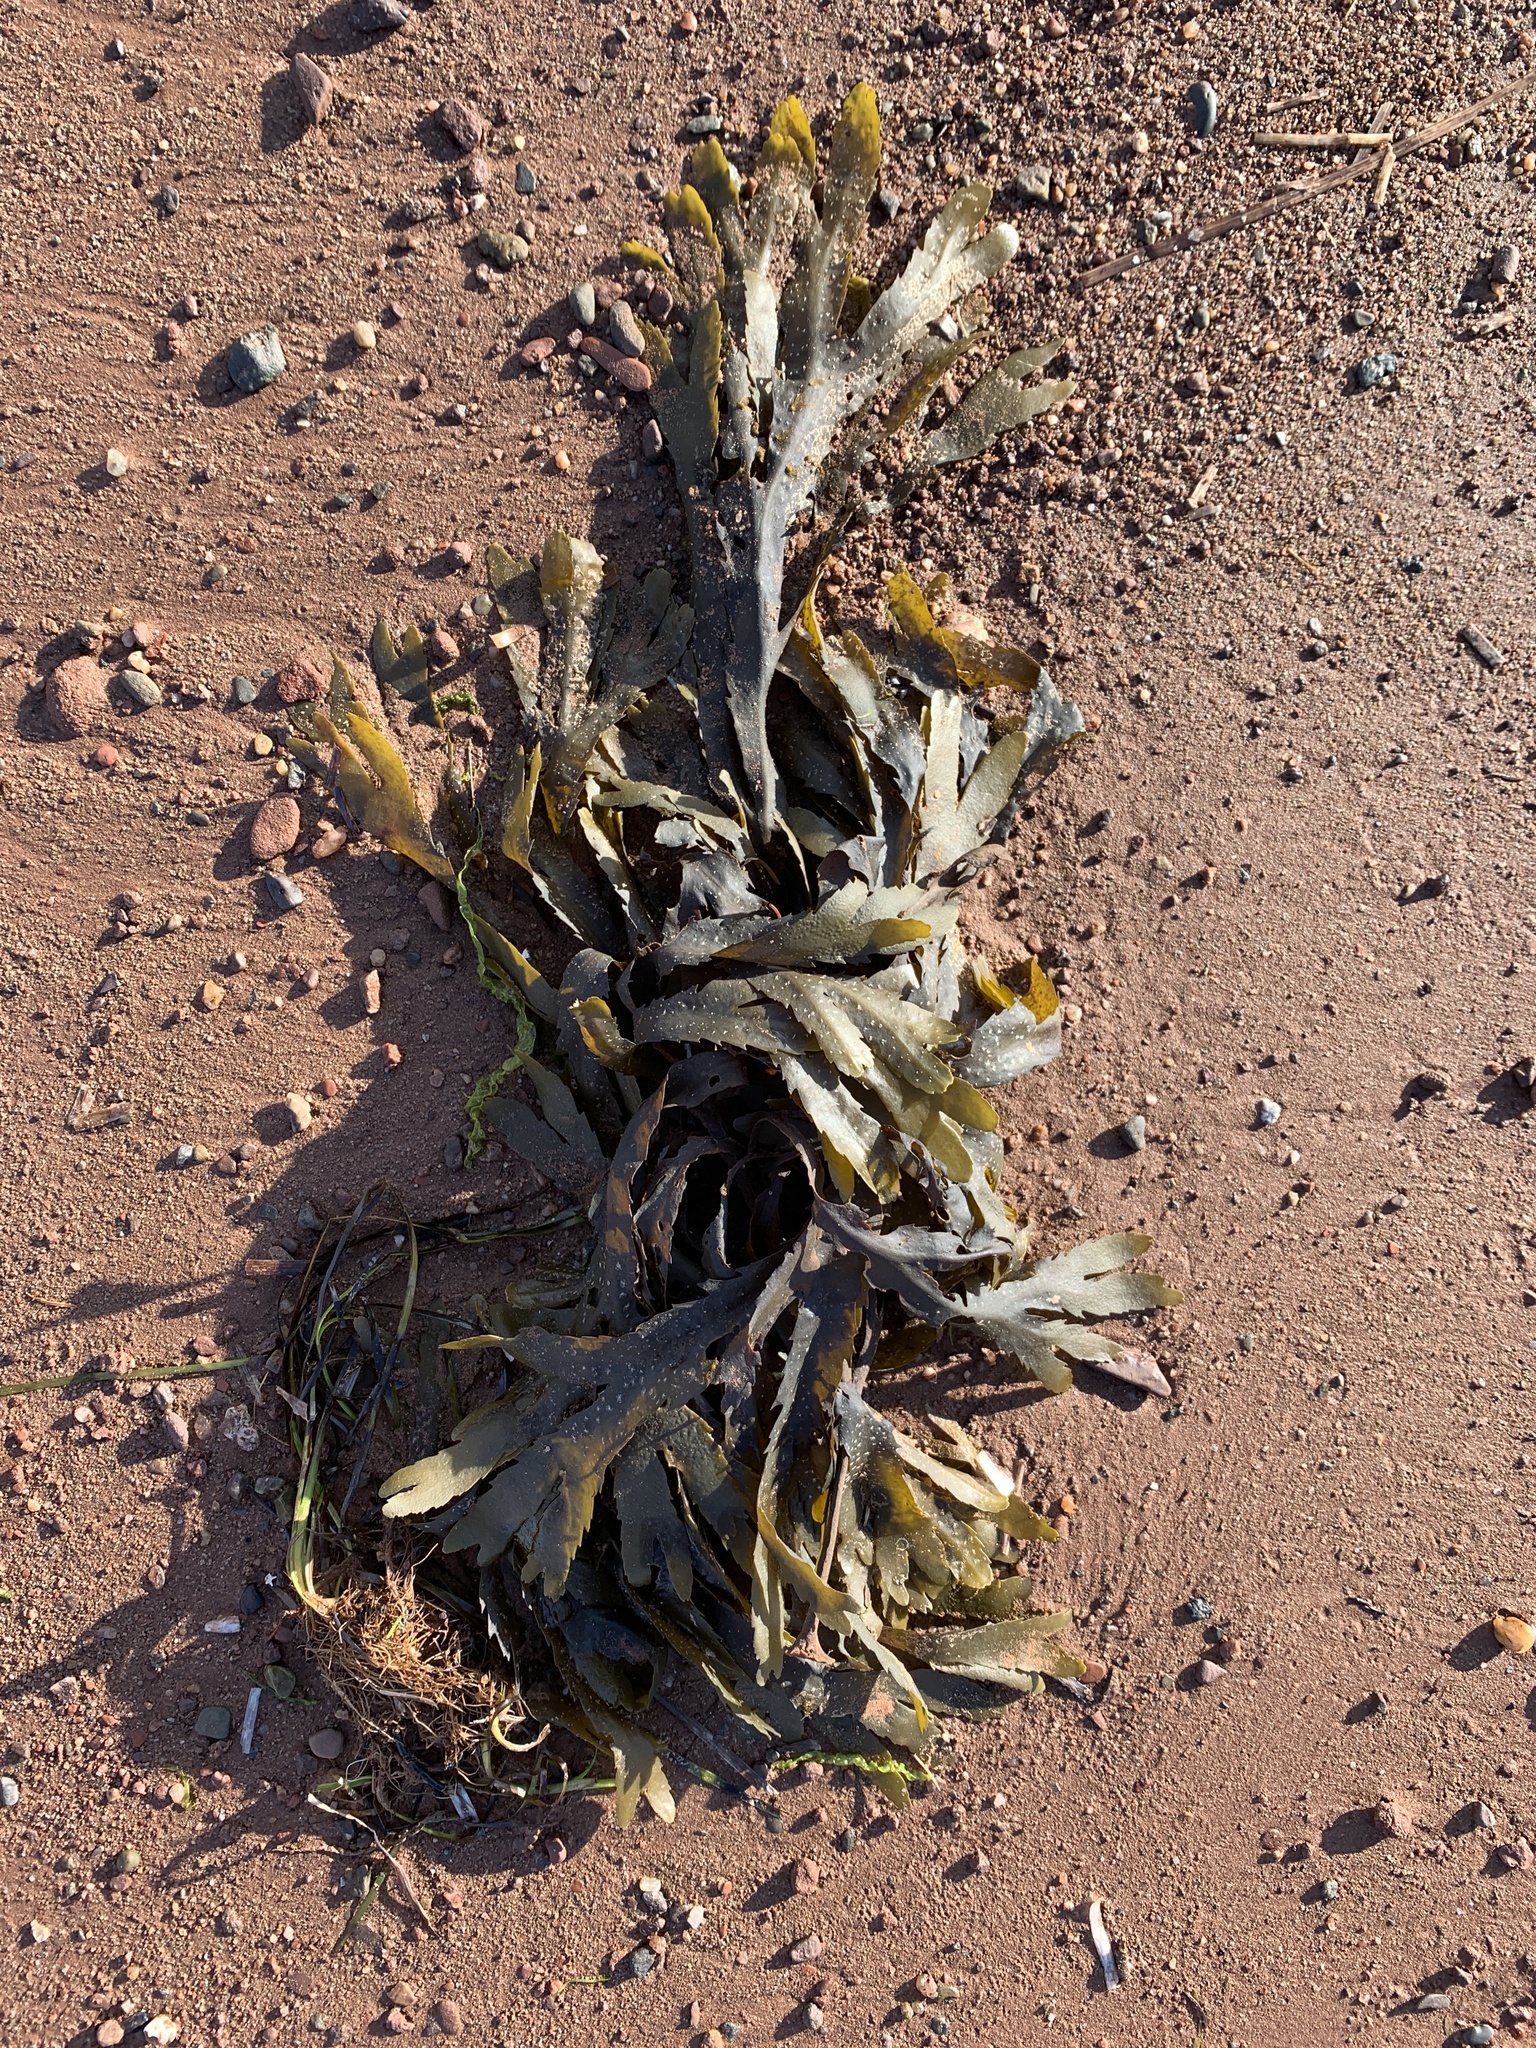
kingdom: Chromista
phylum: Ochrophyta
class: Phaeophyceae
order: Fucales
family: Fucaceae
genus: Fucus
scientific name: Fucus serratus
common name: Toothed wrack
